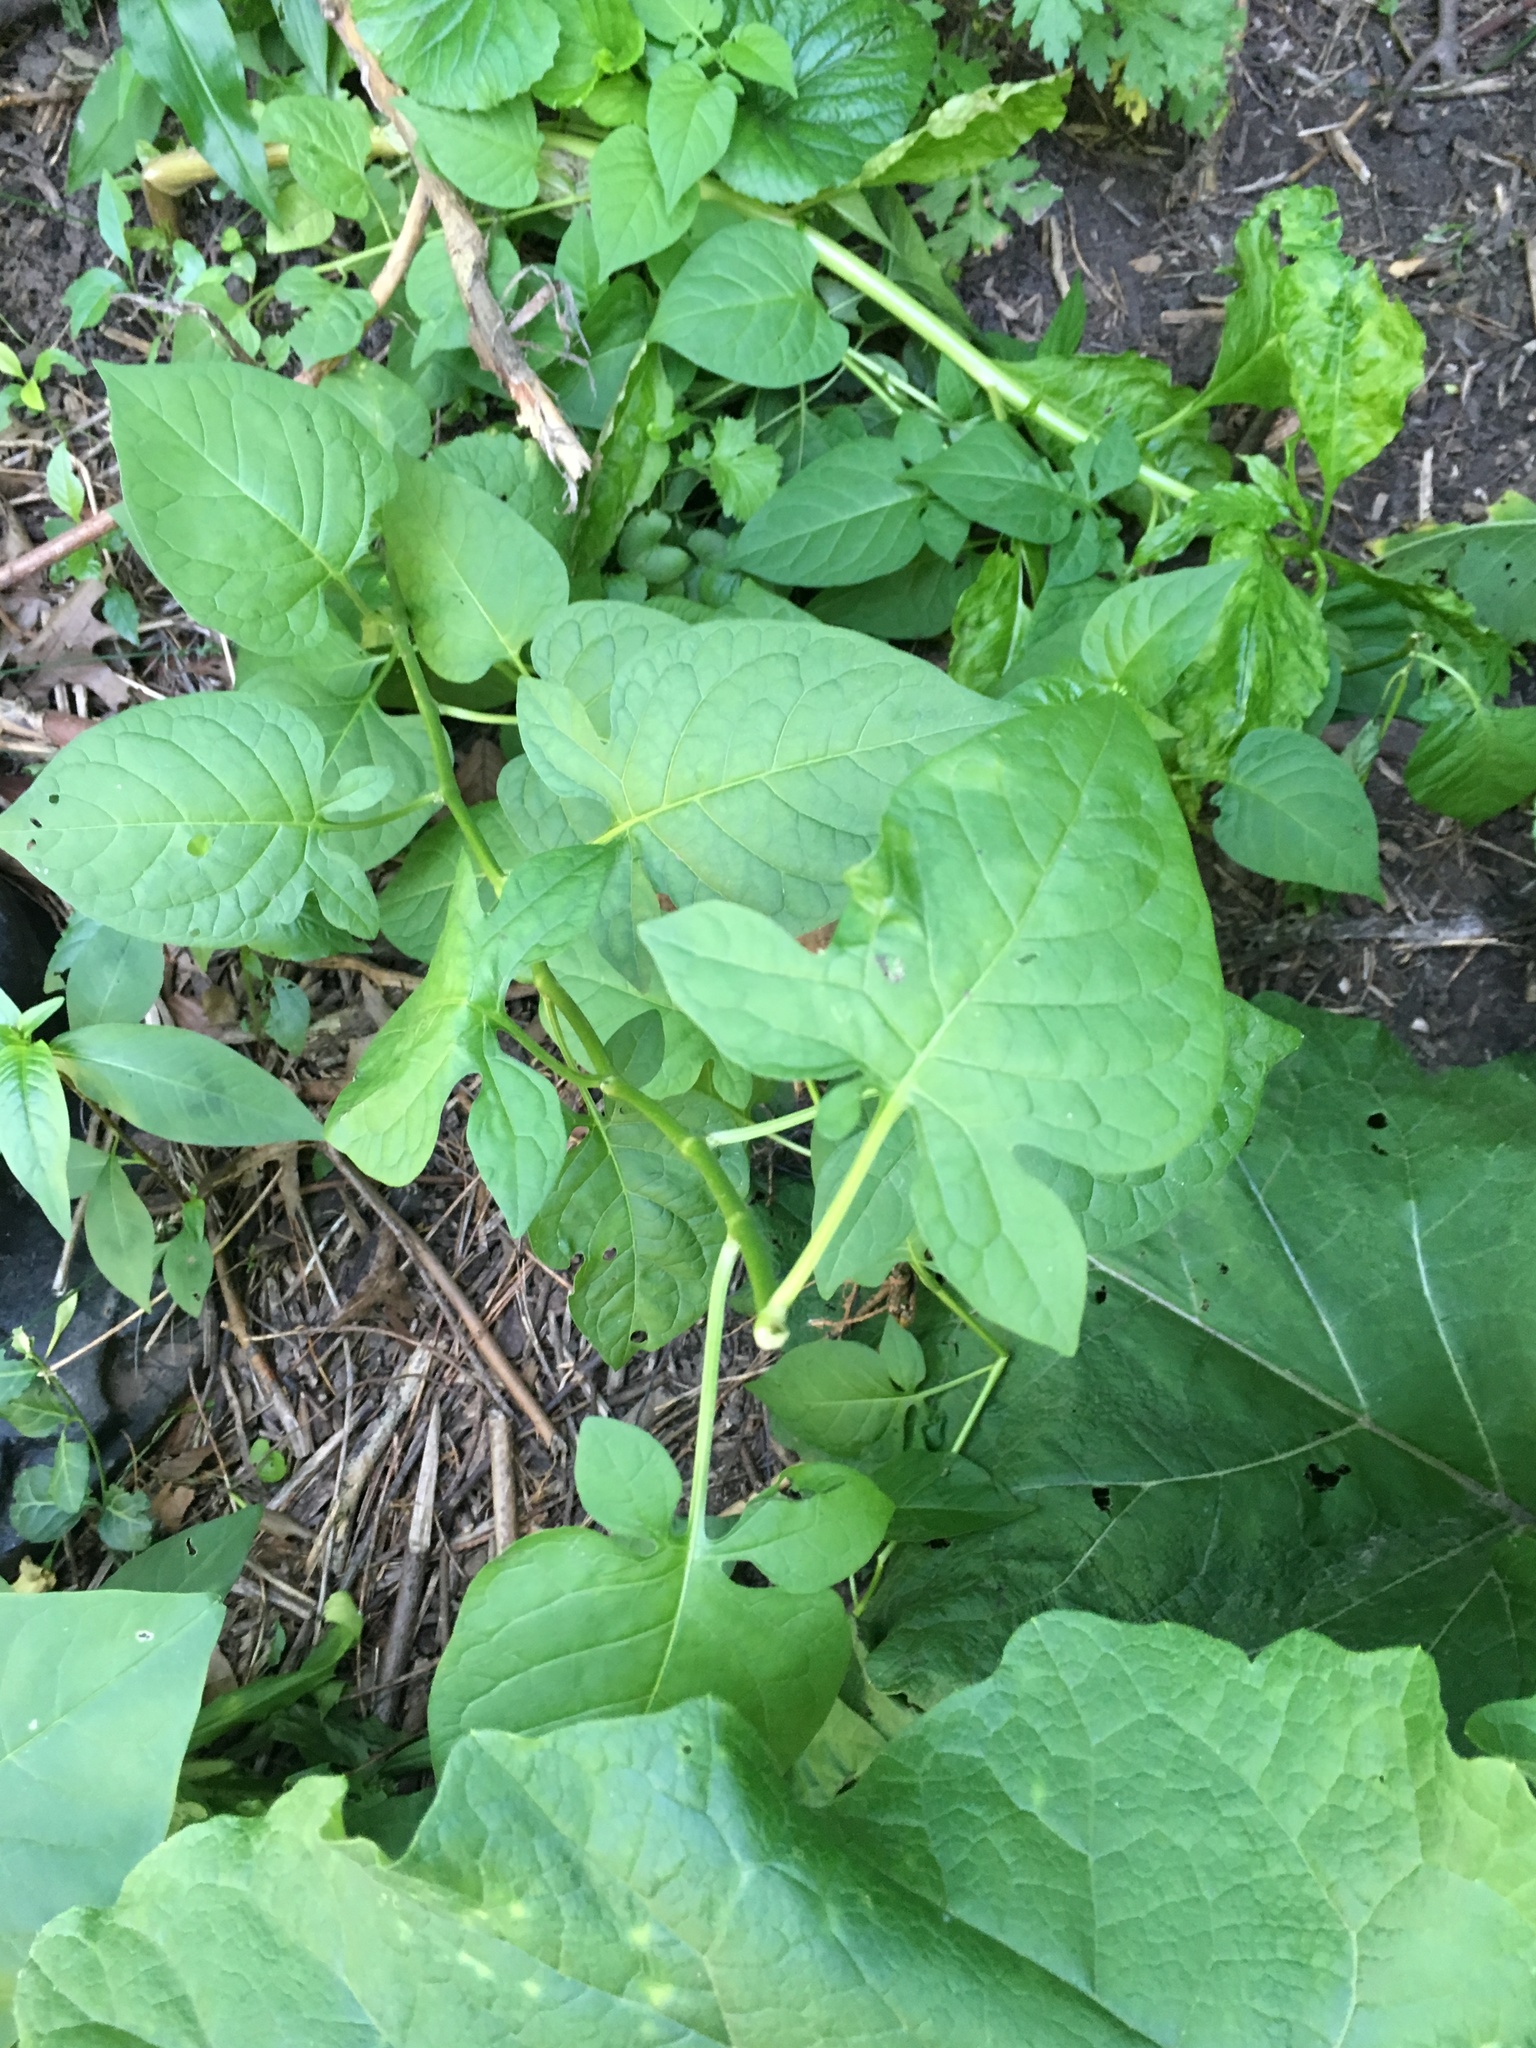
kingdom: Plantae
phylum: Tracheophyta
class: Magnoliopsida
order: Solanales
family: Solanaceae
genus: Solanum
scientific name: Solanum dulcamara
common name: Climbing nightshade
